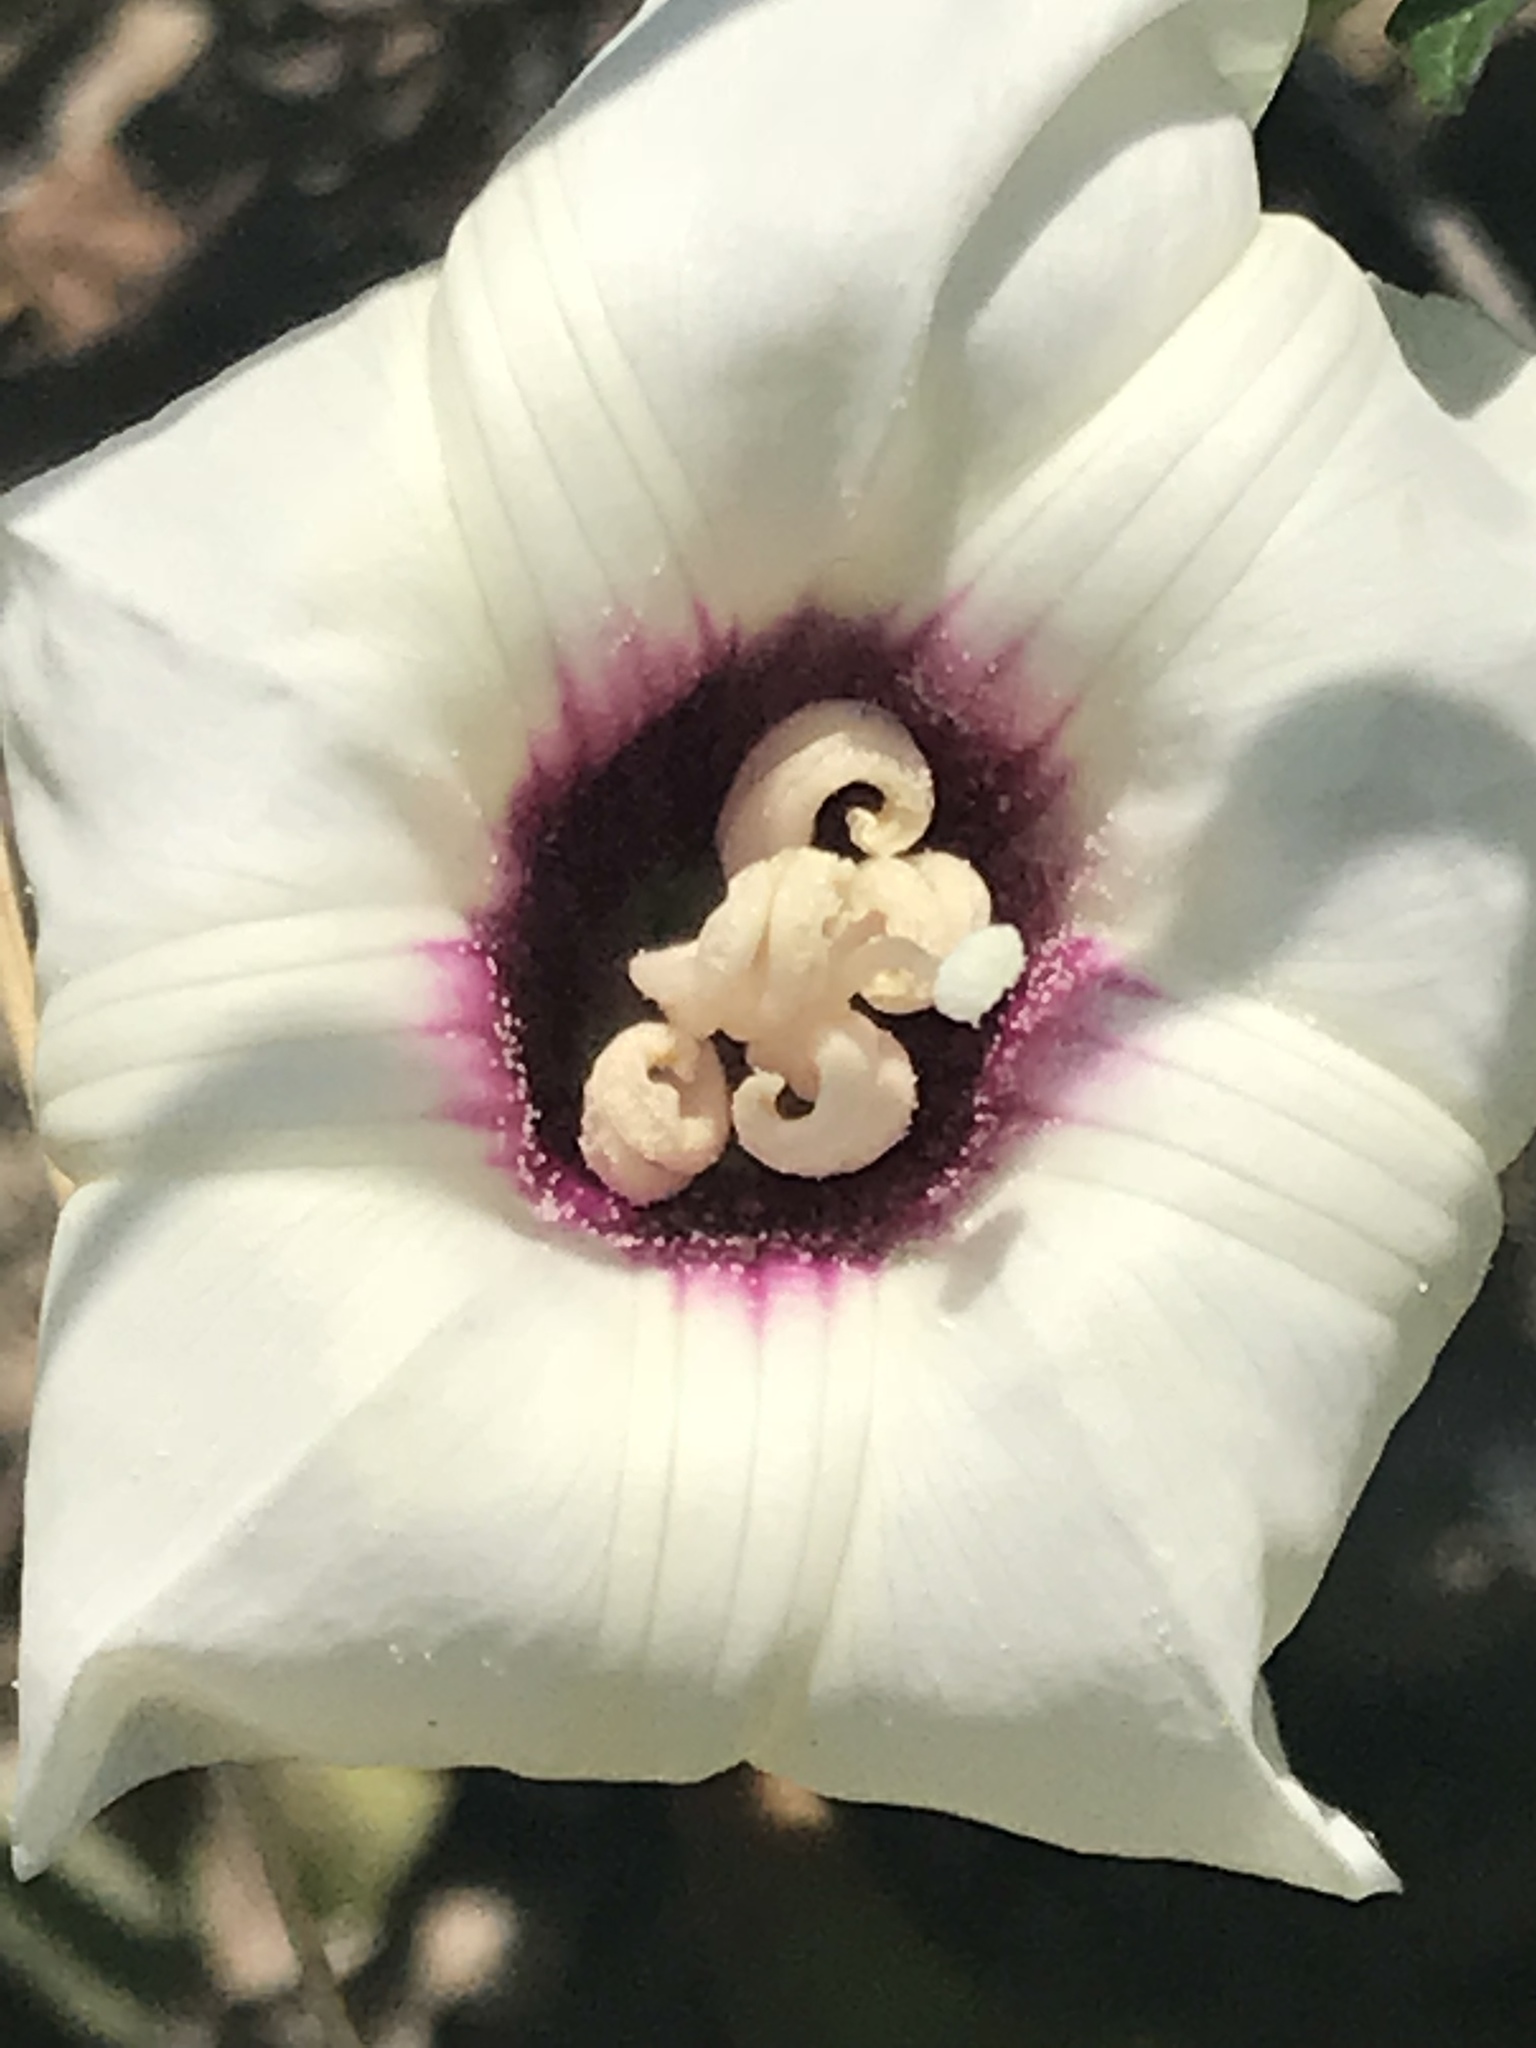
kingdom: Plantae
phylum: Tracheophyta
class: Magnoliopsida
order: Solanales
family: Convolvulaceae
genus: Distimake
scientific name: Distimake dissectus
